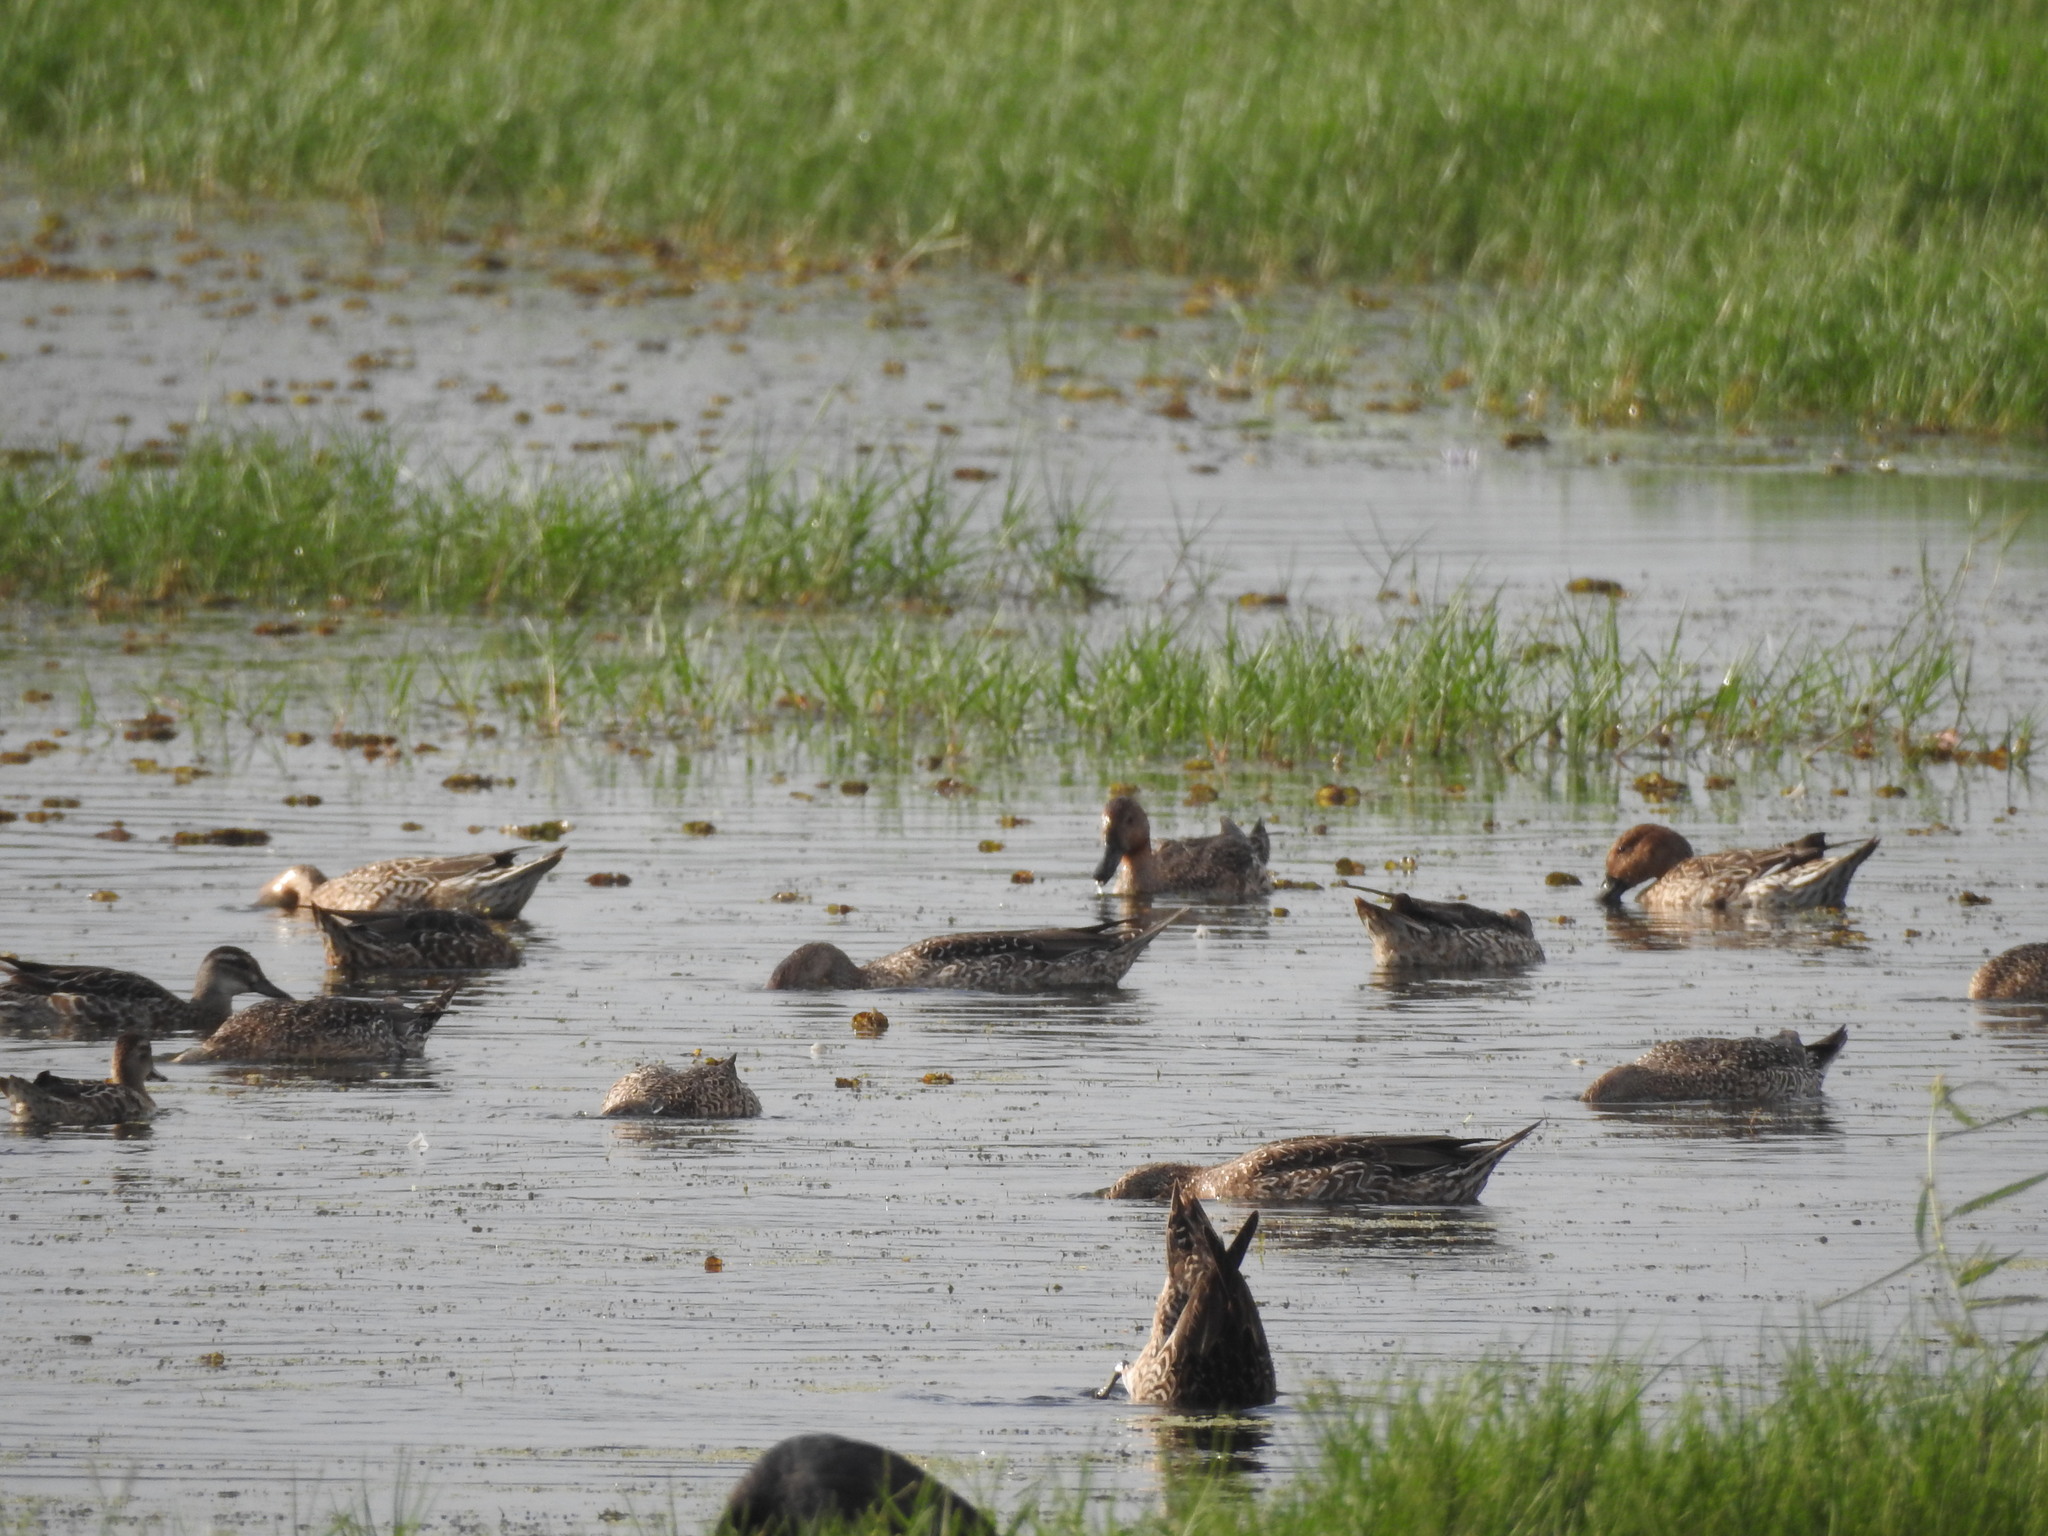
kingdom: Animalia
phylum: Chordata
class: Aves
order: Anseriformes
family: Anatidae
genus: Spatula
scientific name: Spatula querquedula
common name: Garganey
